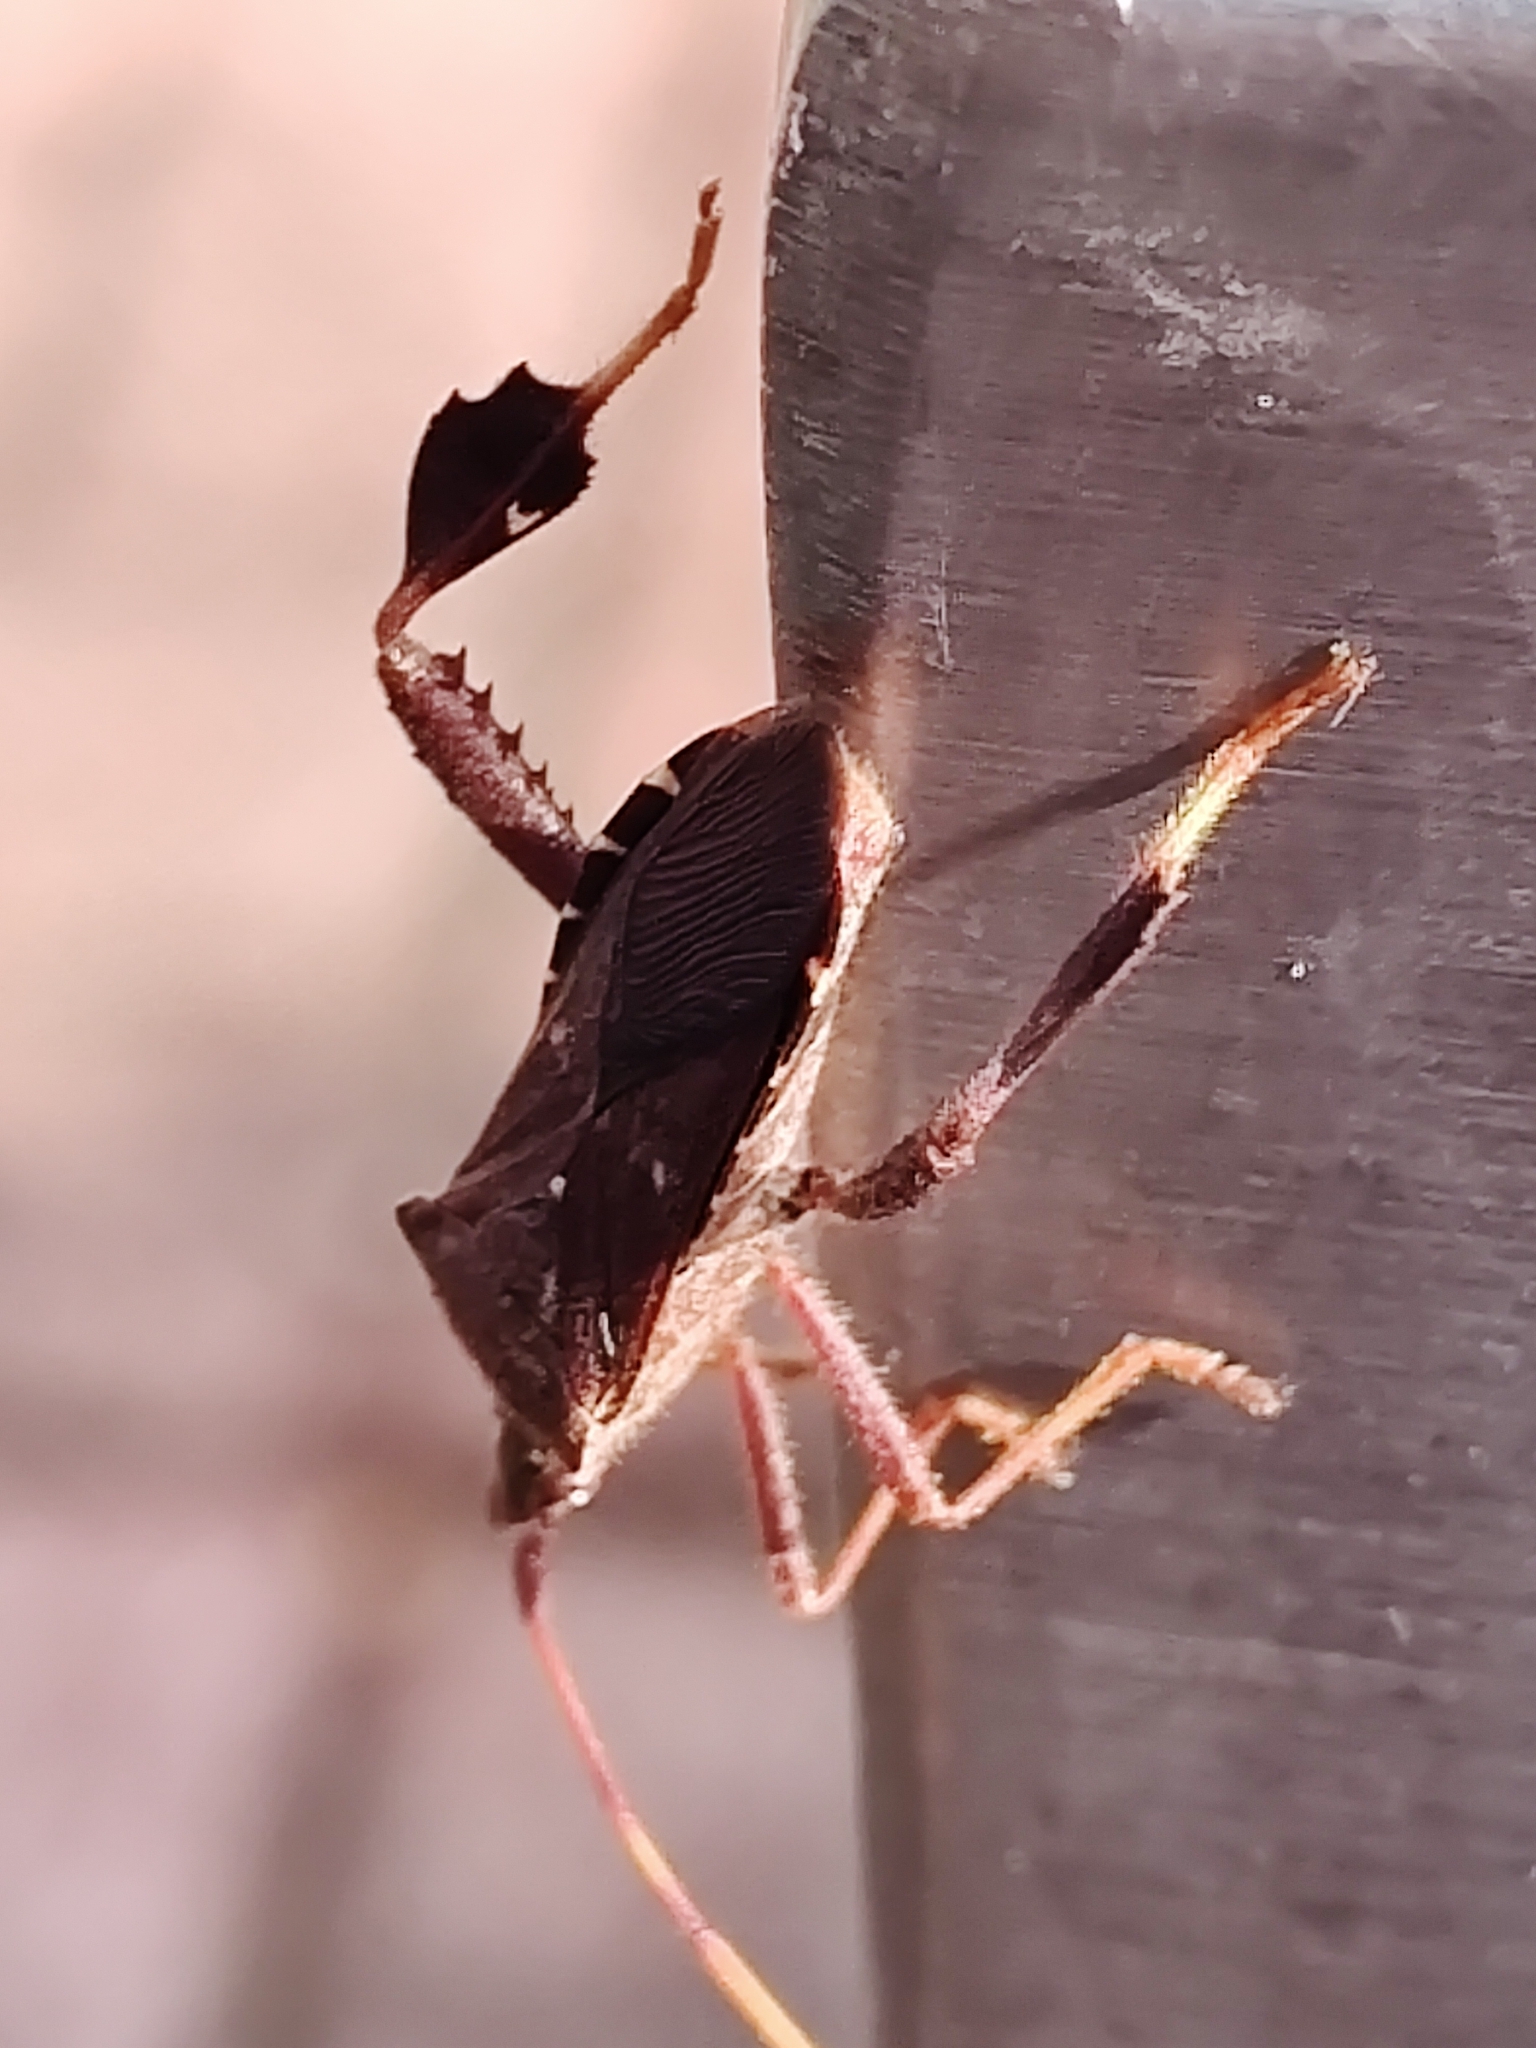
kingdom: Animalia
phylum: Arthropoda
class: Insecta
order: Hemiptera
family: Coreidae
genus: Leptoglossus
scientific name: Leptoglossus oppositus
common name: Northern leaf-footed bug
